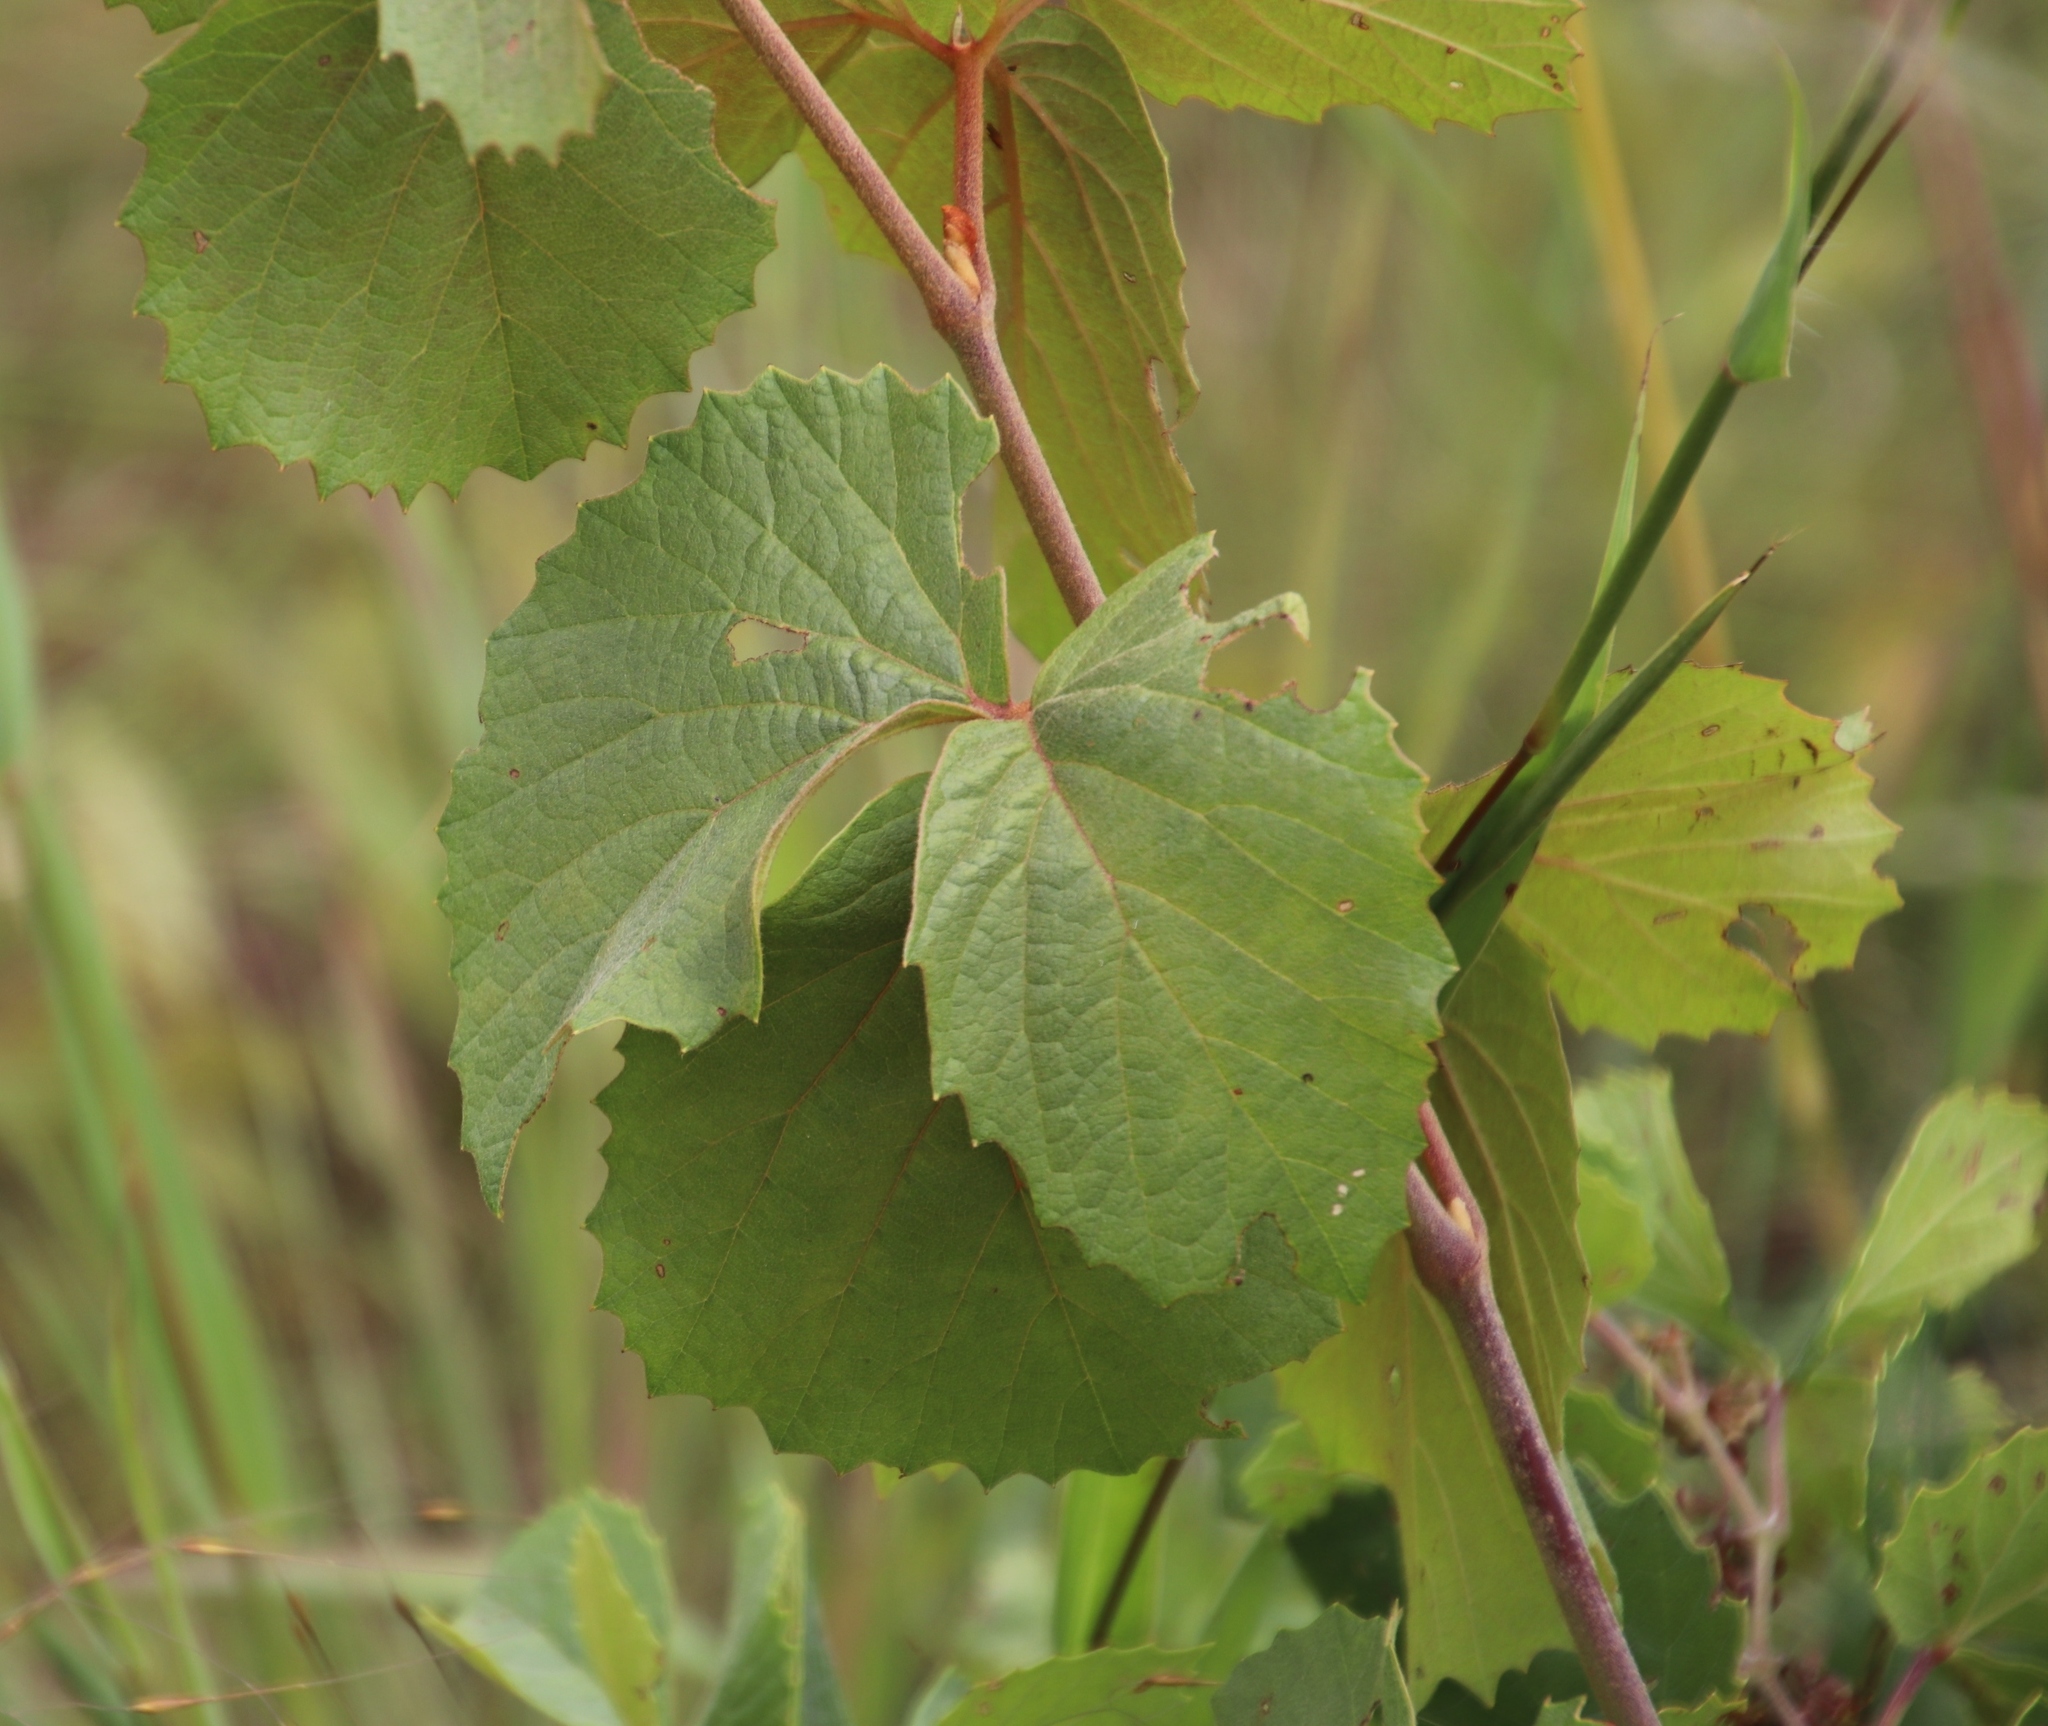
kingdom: Plantae
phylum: Tracheophyta
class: Magnoliopsida
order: Vitales
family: Vitaceae
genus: Rhoicissus
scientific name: Rhoicissus tridentata
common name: Common forest grape
